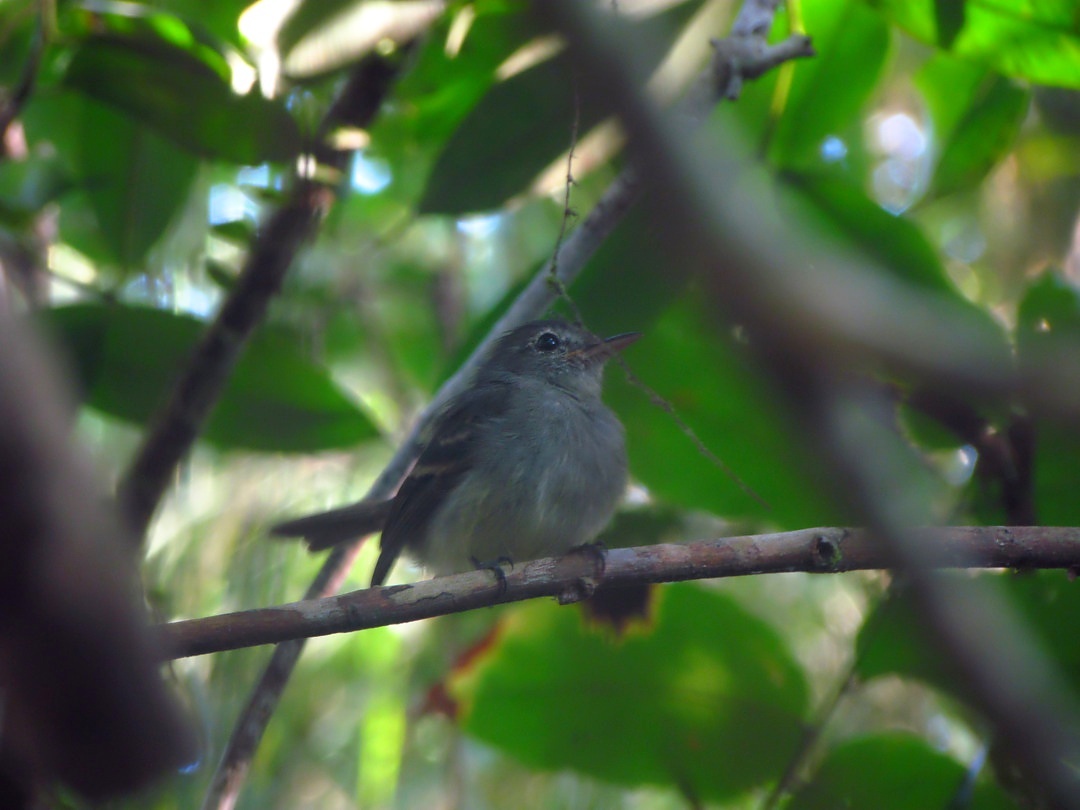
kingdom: Animalia
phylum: Chordata
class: Aves
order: Passeriformes
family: Tyrannidae
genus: Lathrotriccus
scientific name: Lathrotriccus euleri
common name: Euler's flycatcher
